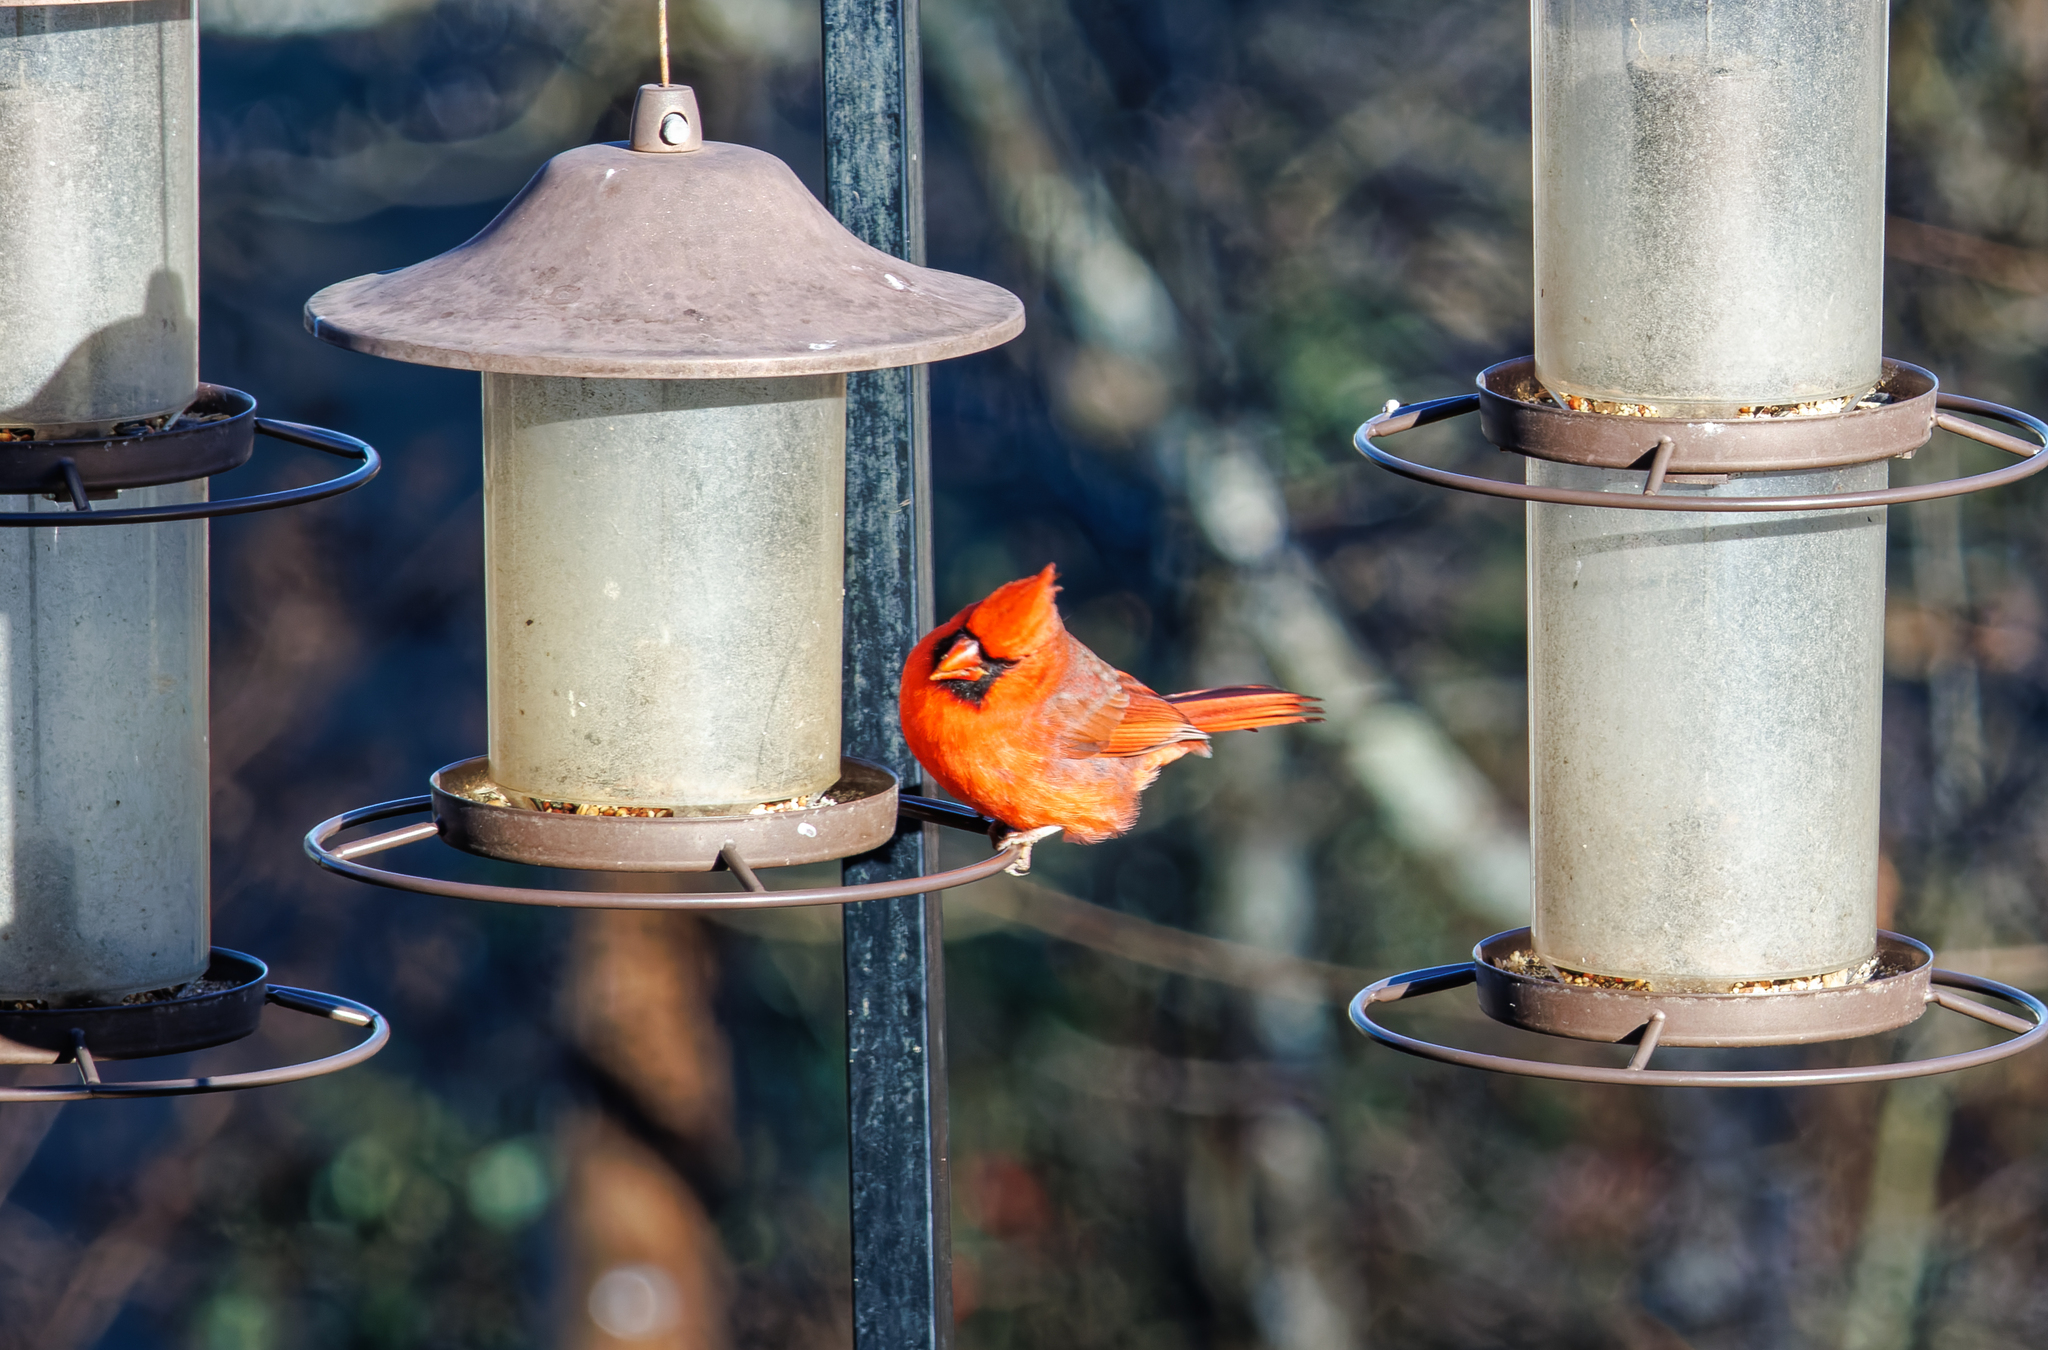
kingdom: Animalia
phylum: Chordata
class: Aves
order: Passeriformes
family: Cardinalidae
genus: Cardinalis
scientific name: Cardinalis cardinalis
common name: Northern cardinal
